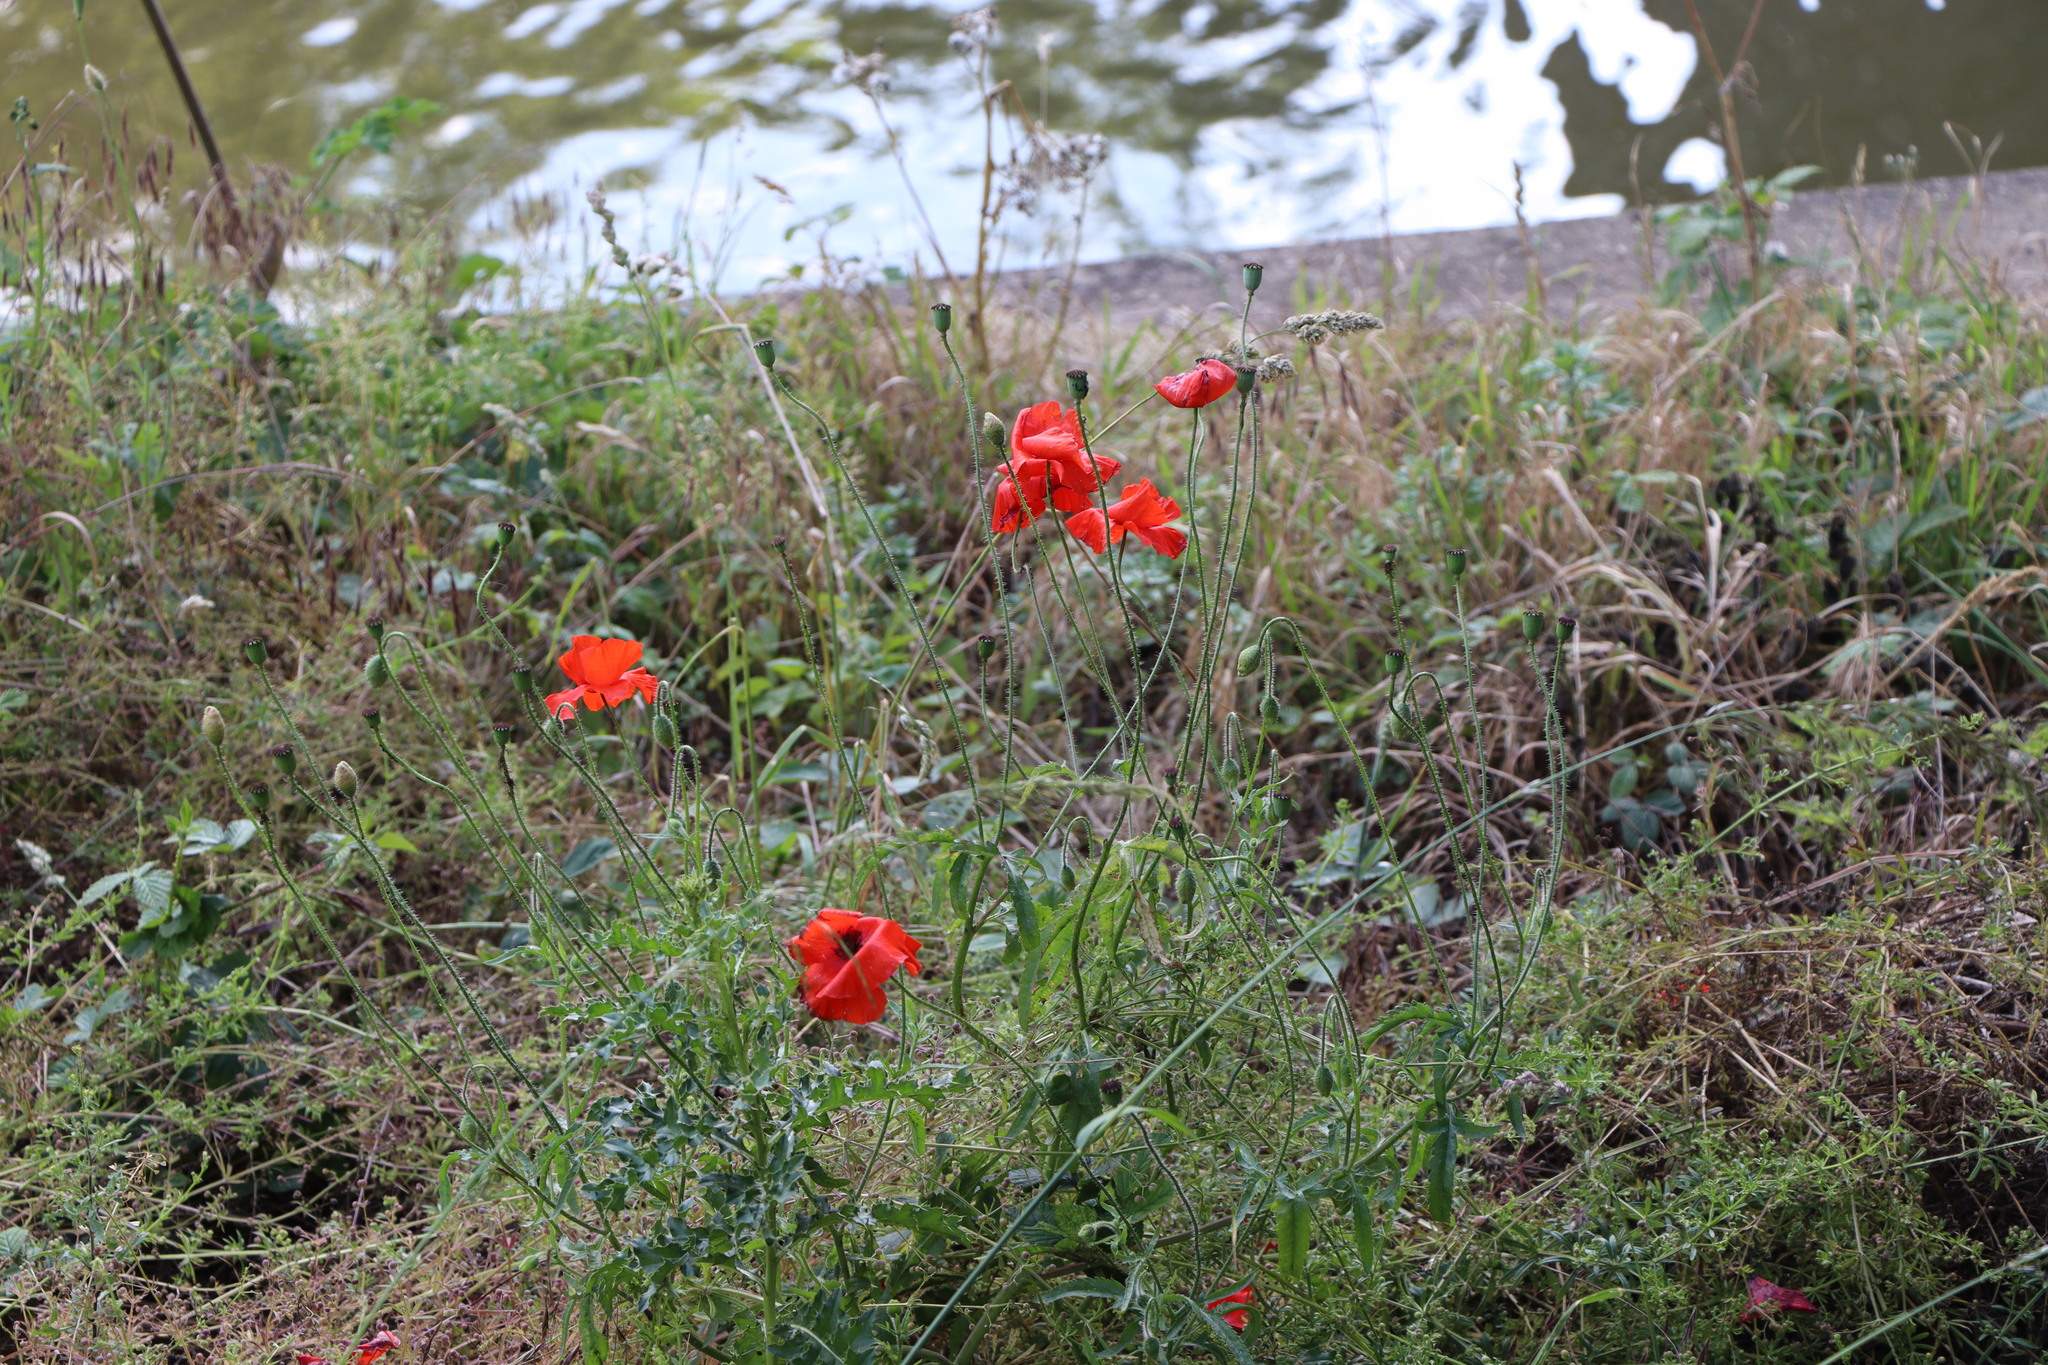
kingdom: Plantae
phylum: Tracheophyta
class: Magnoliopsida
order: Ranunculales
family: Papaveraceae
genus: Papaver
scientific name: Papaver rhoeas
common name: Corn poppy
